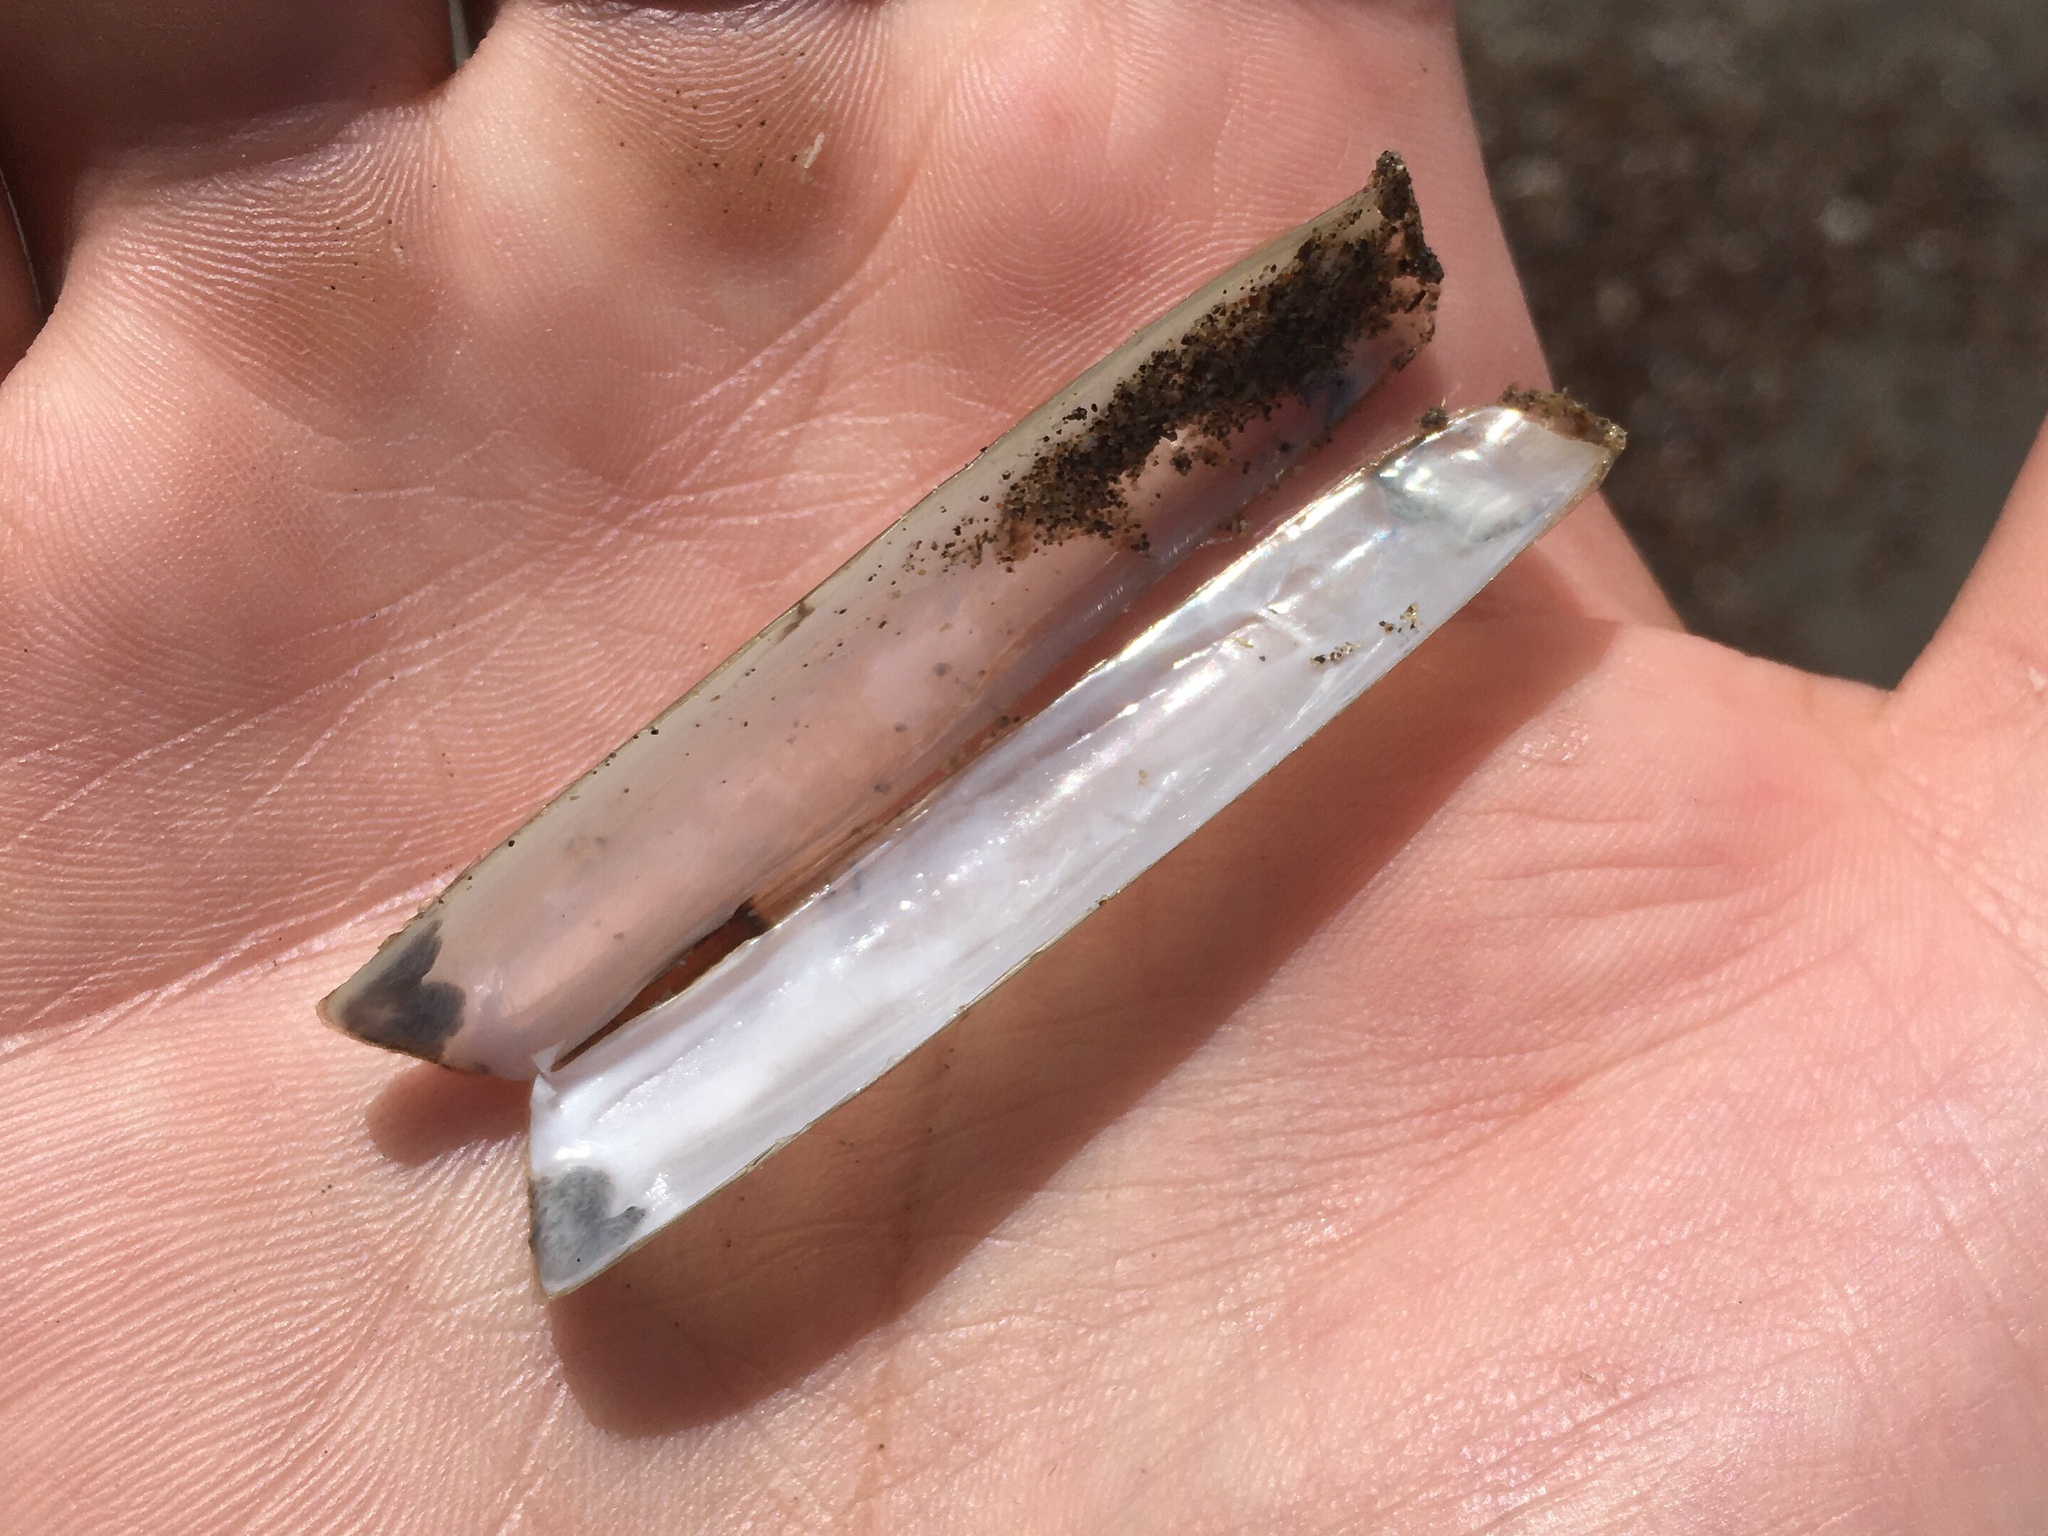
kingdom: Animalia
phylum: Mollusca
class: Bivalvia
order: Adapedonta
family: Solenidae
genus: Solen
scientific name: Solen thuelchus
